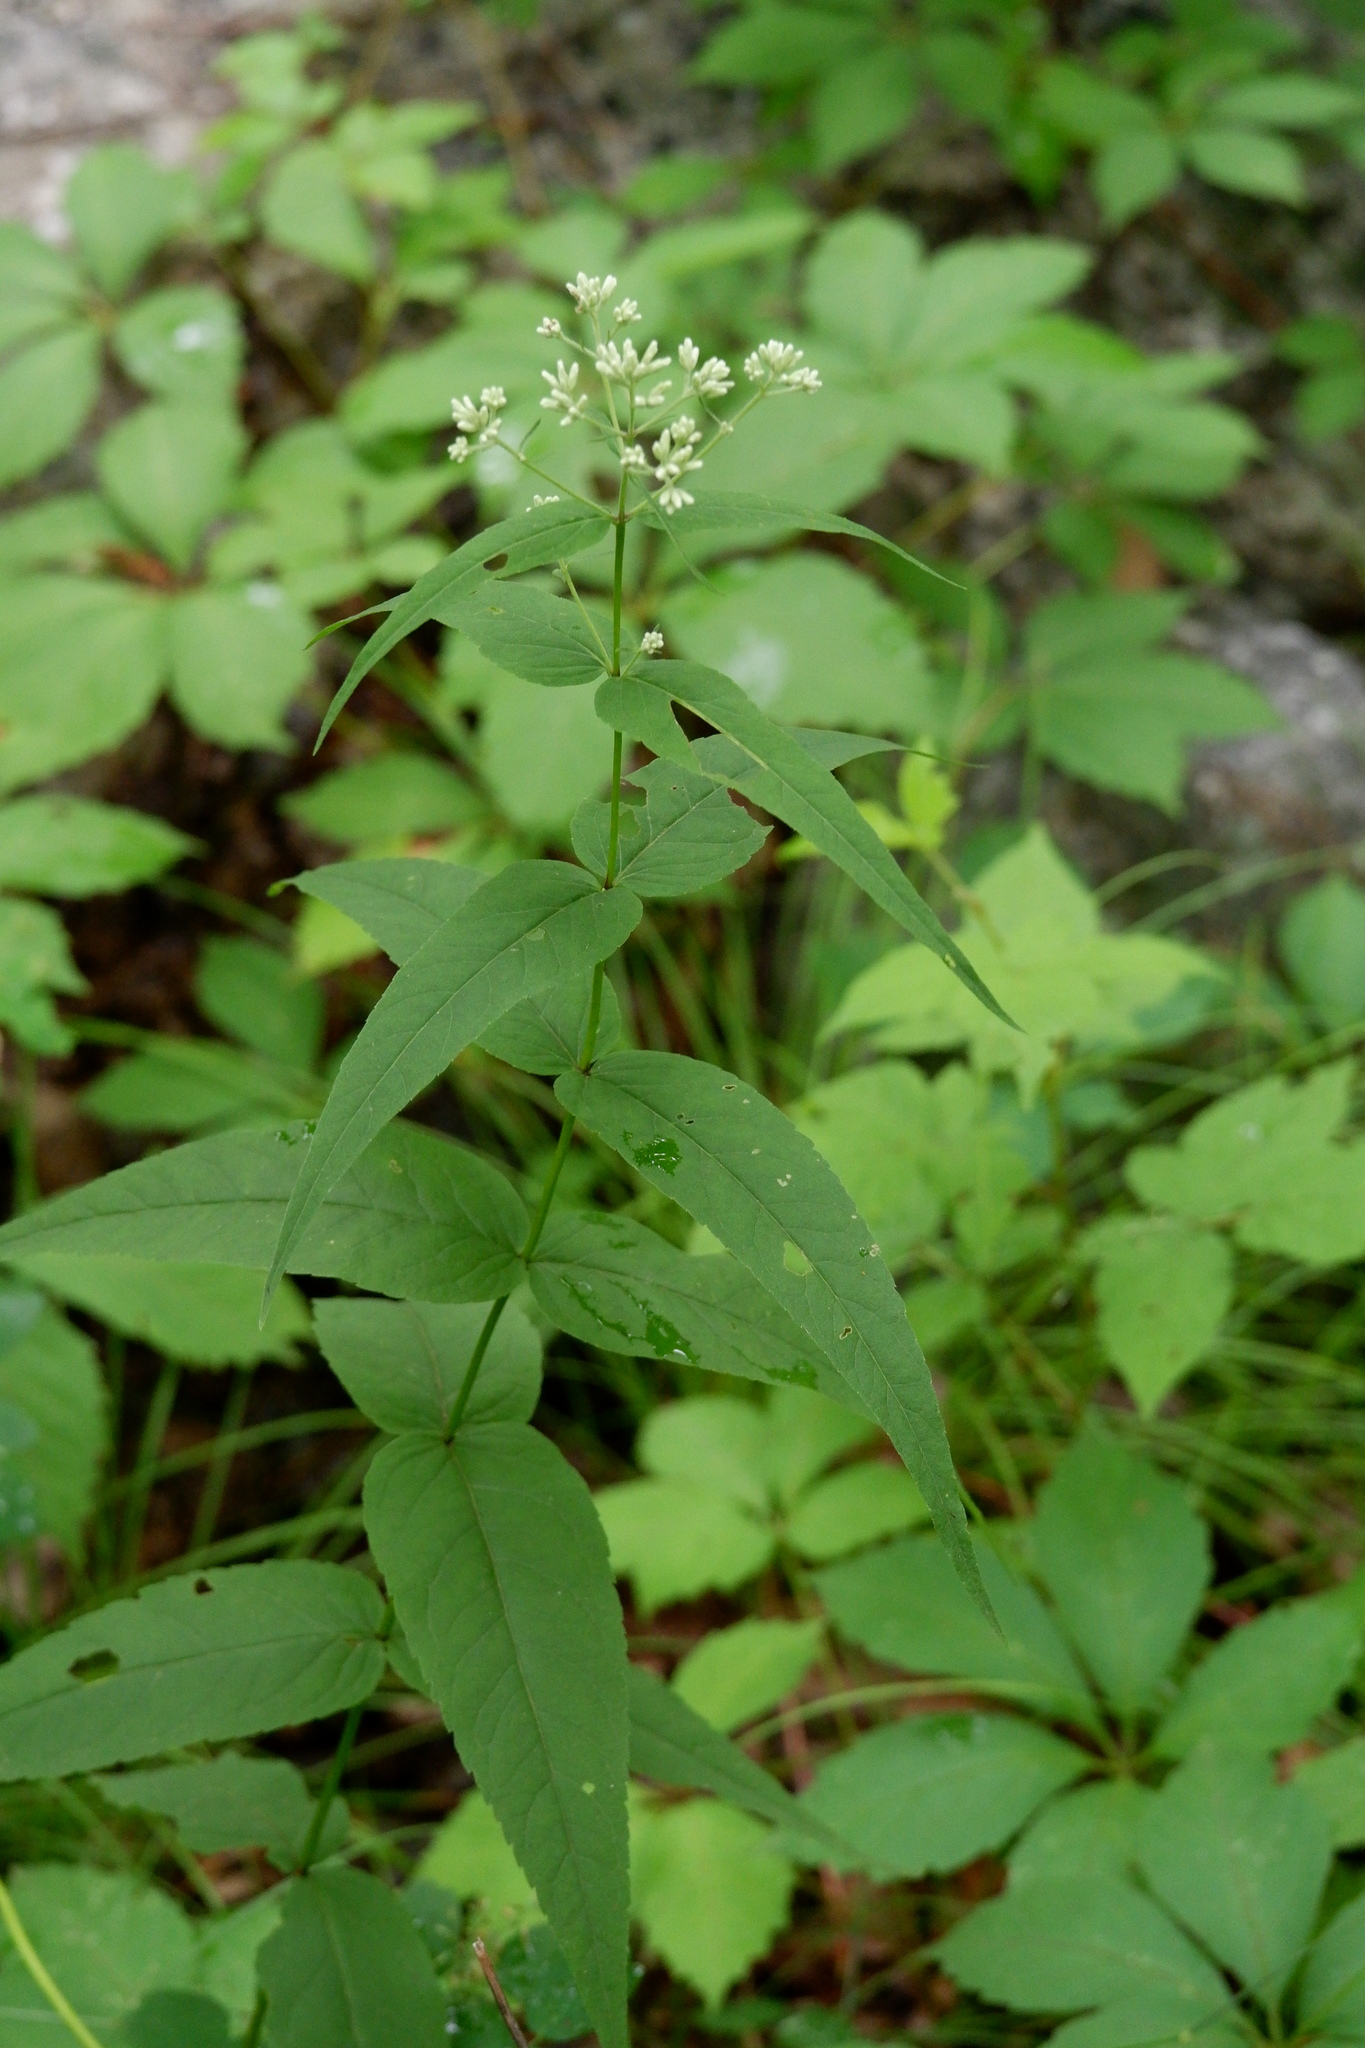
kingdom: Plantae
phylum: Tracheophyta
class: Magnoliopsida
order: Asterales
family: Asteraceae
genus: Eupatorium
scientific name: Eupatorium sessilifolium
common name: Upland boneset
